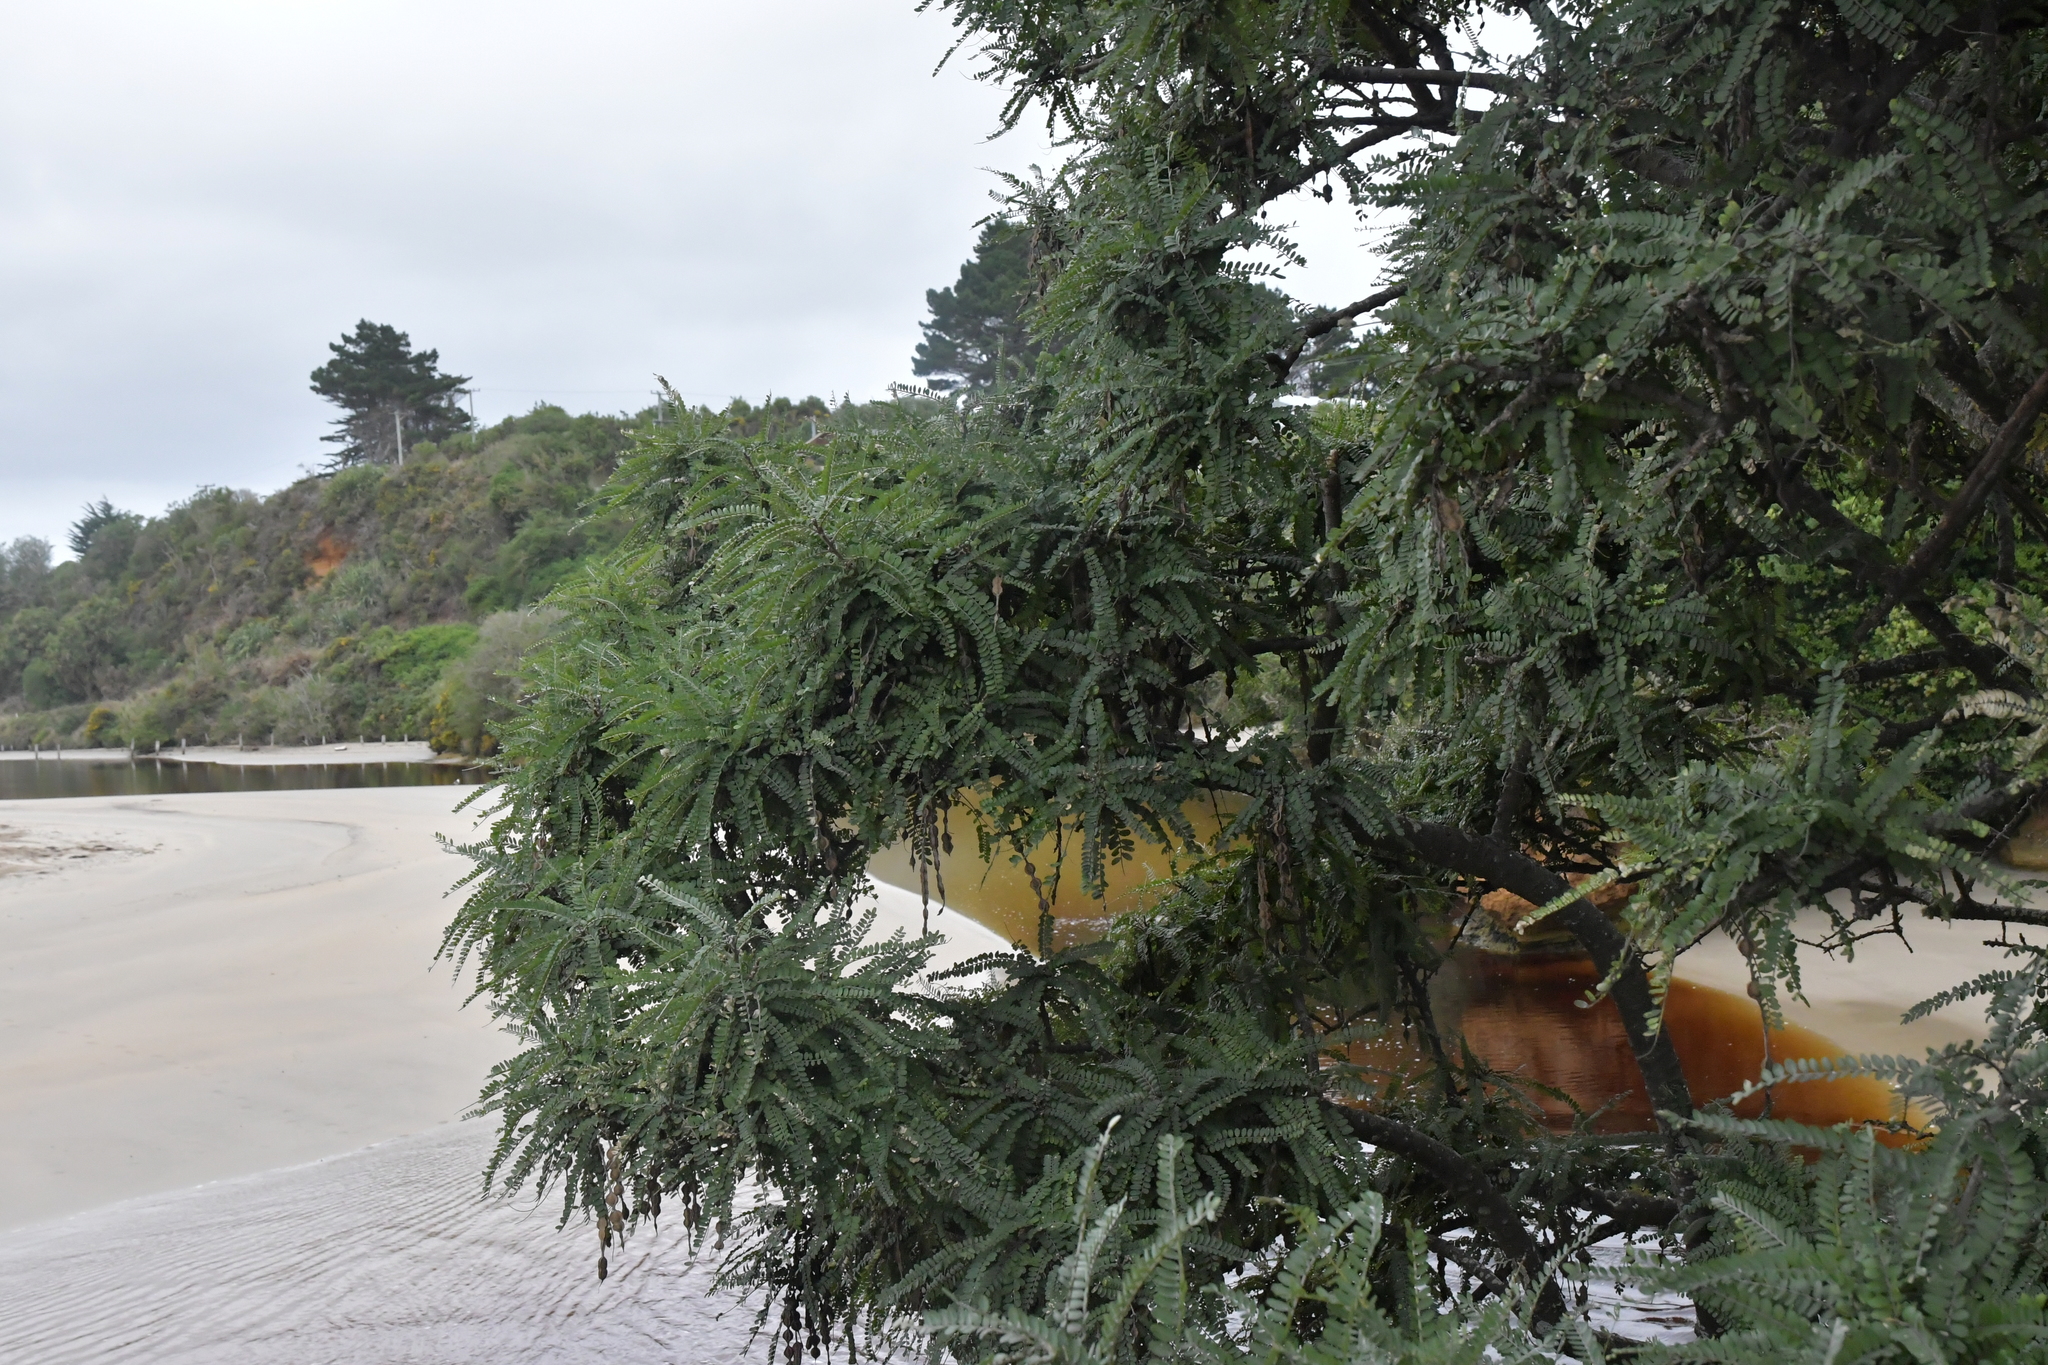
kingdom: Plantae
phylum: Tracheophyta
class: Magnoliopsida
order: Fabales
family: Fabaceae
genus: Sophora
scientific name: Sophora chathamica
